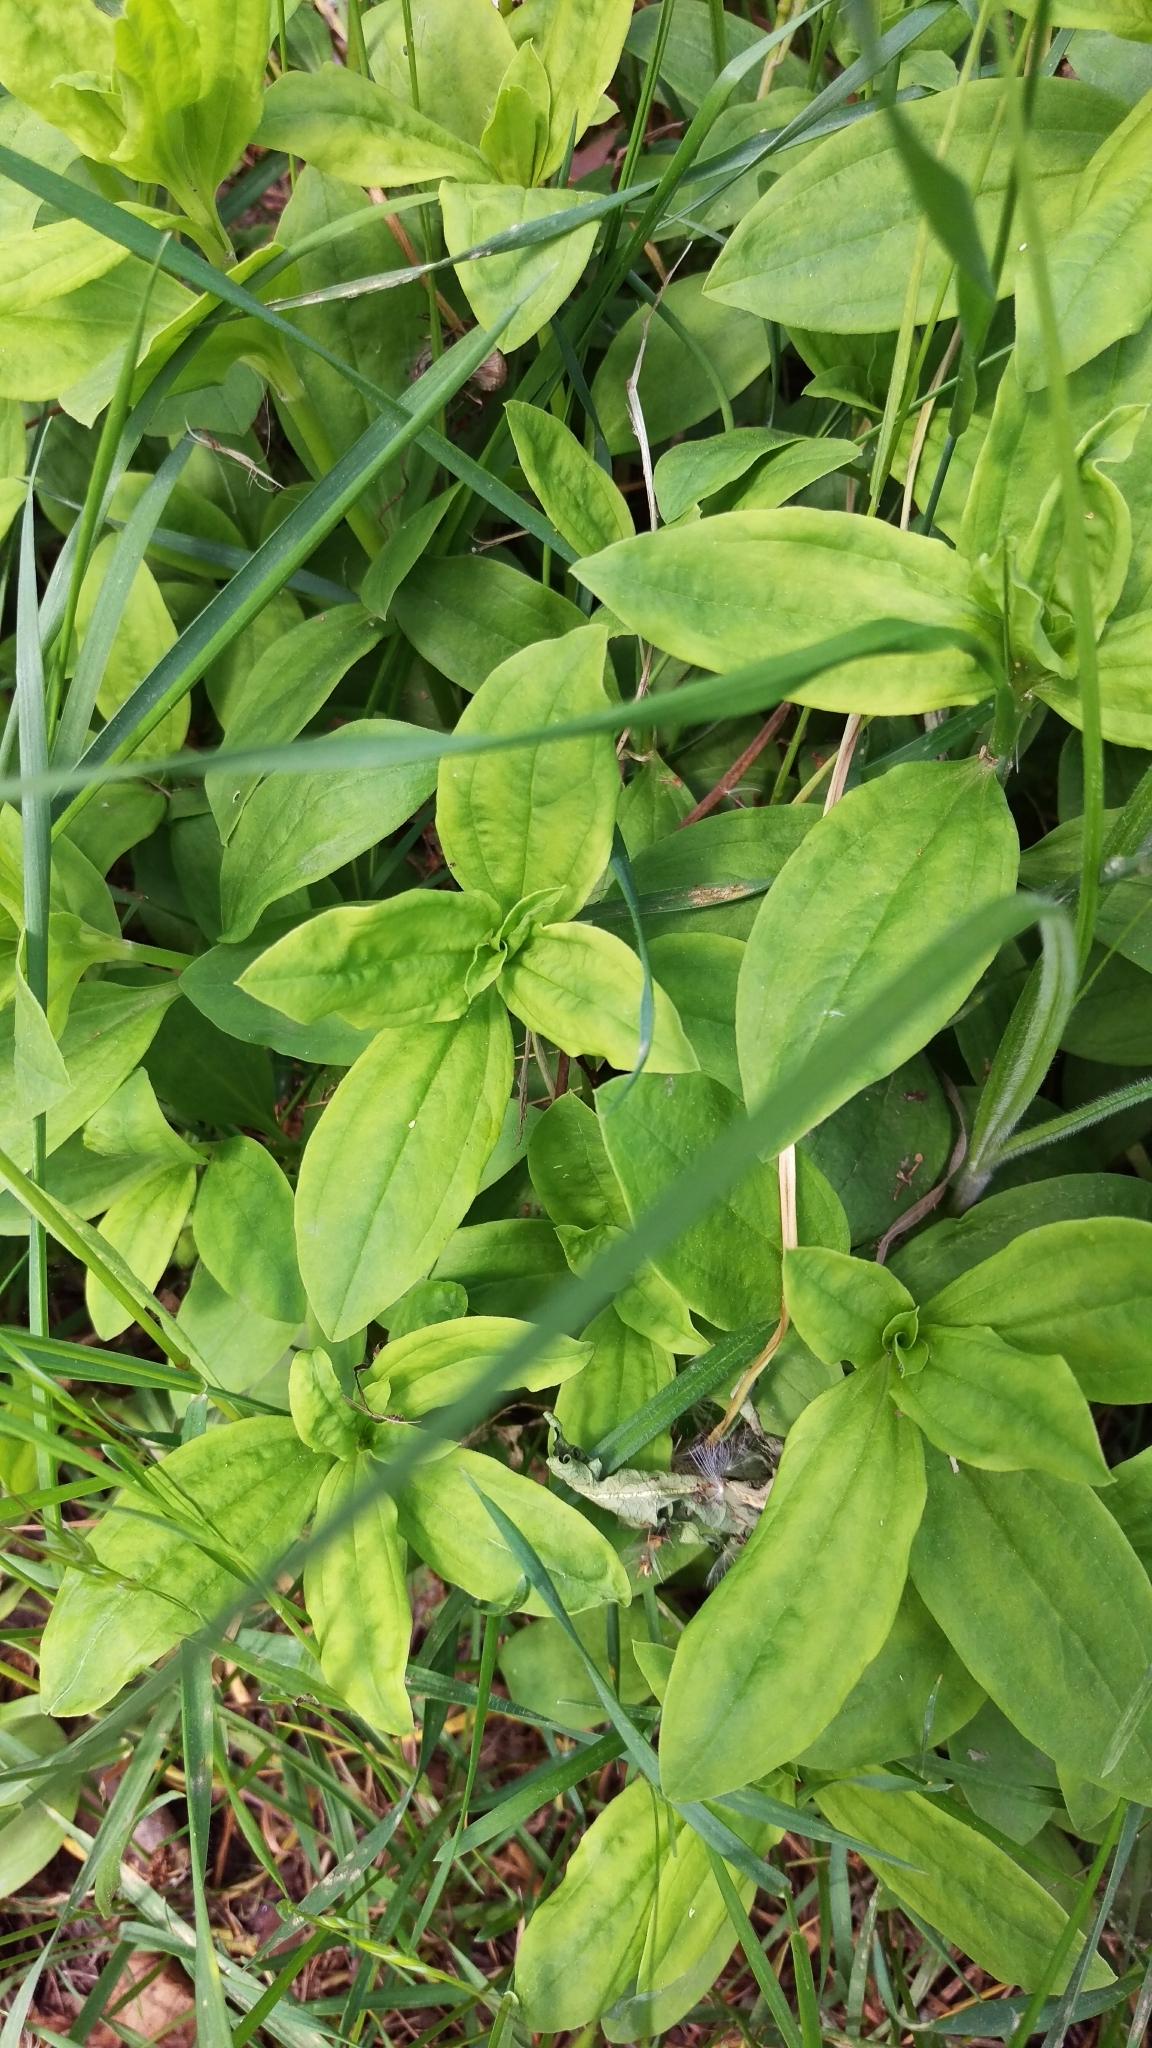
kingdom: Plantae
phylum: Tracheophyta
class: Magnoliopsida
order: Caryophyllales
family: Caryophyllaceae
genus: Saponaria
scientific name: Saponaria officinalis
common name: Soapwort
